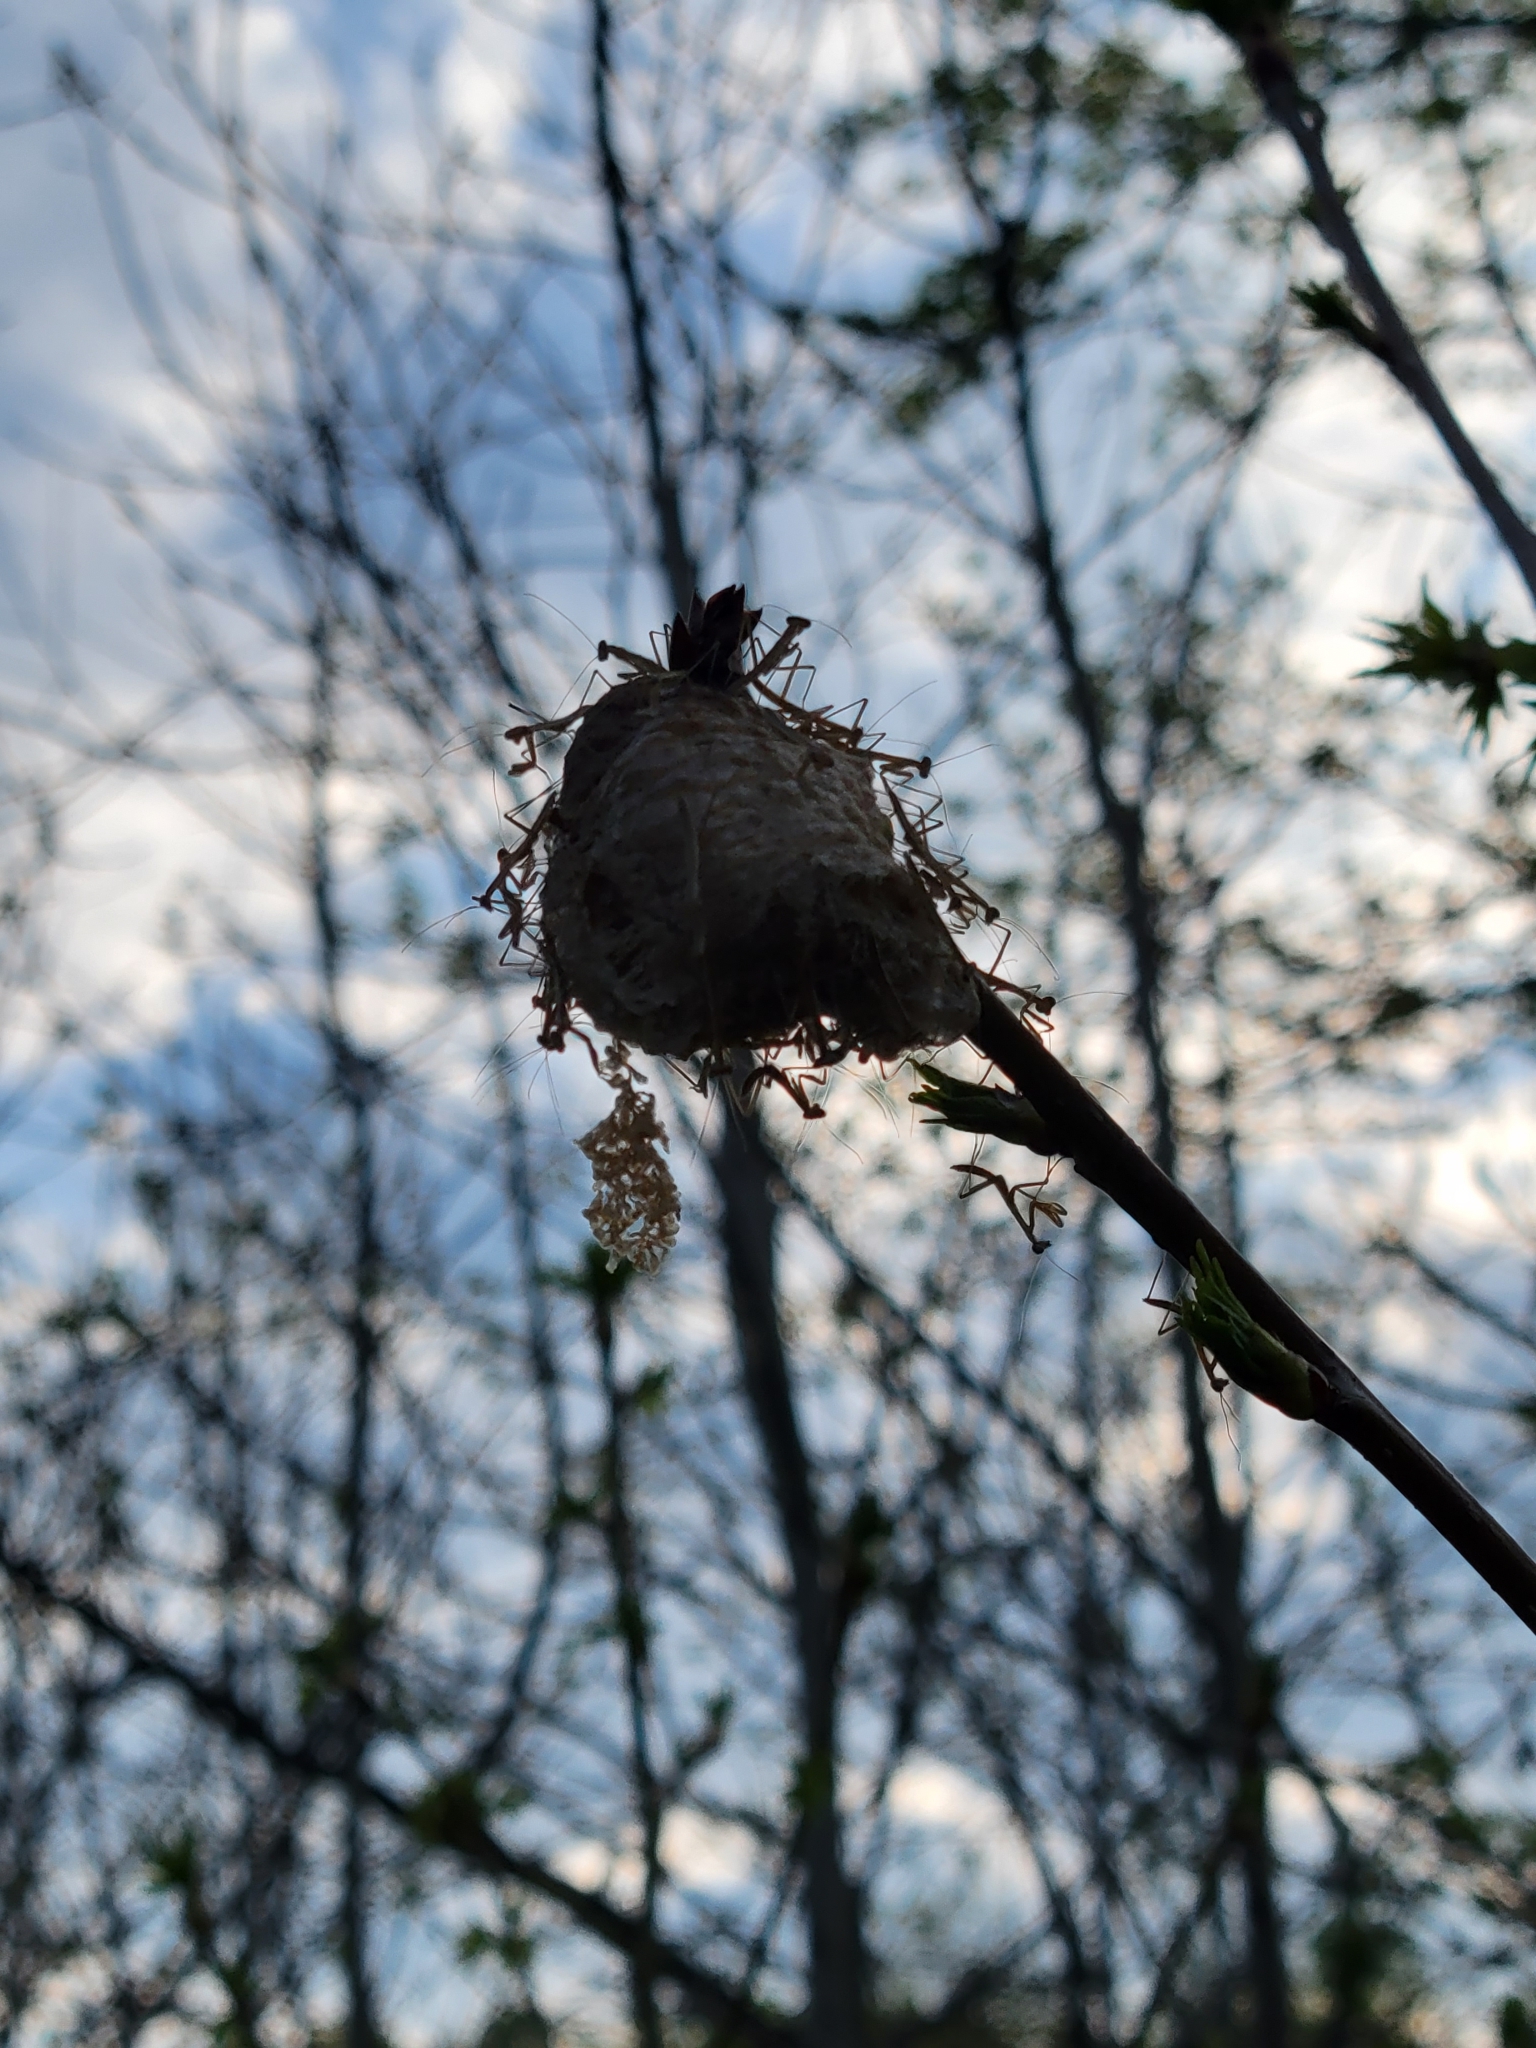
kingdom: Animalia
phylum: Arthropoda
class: Insecta
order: Mantodea
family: Mantidae
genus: Tenodera
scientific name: Tenodera sinensis
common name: Chinese mantis
